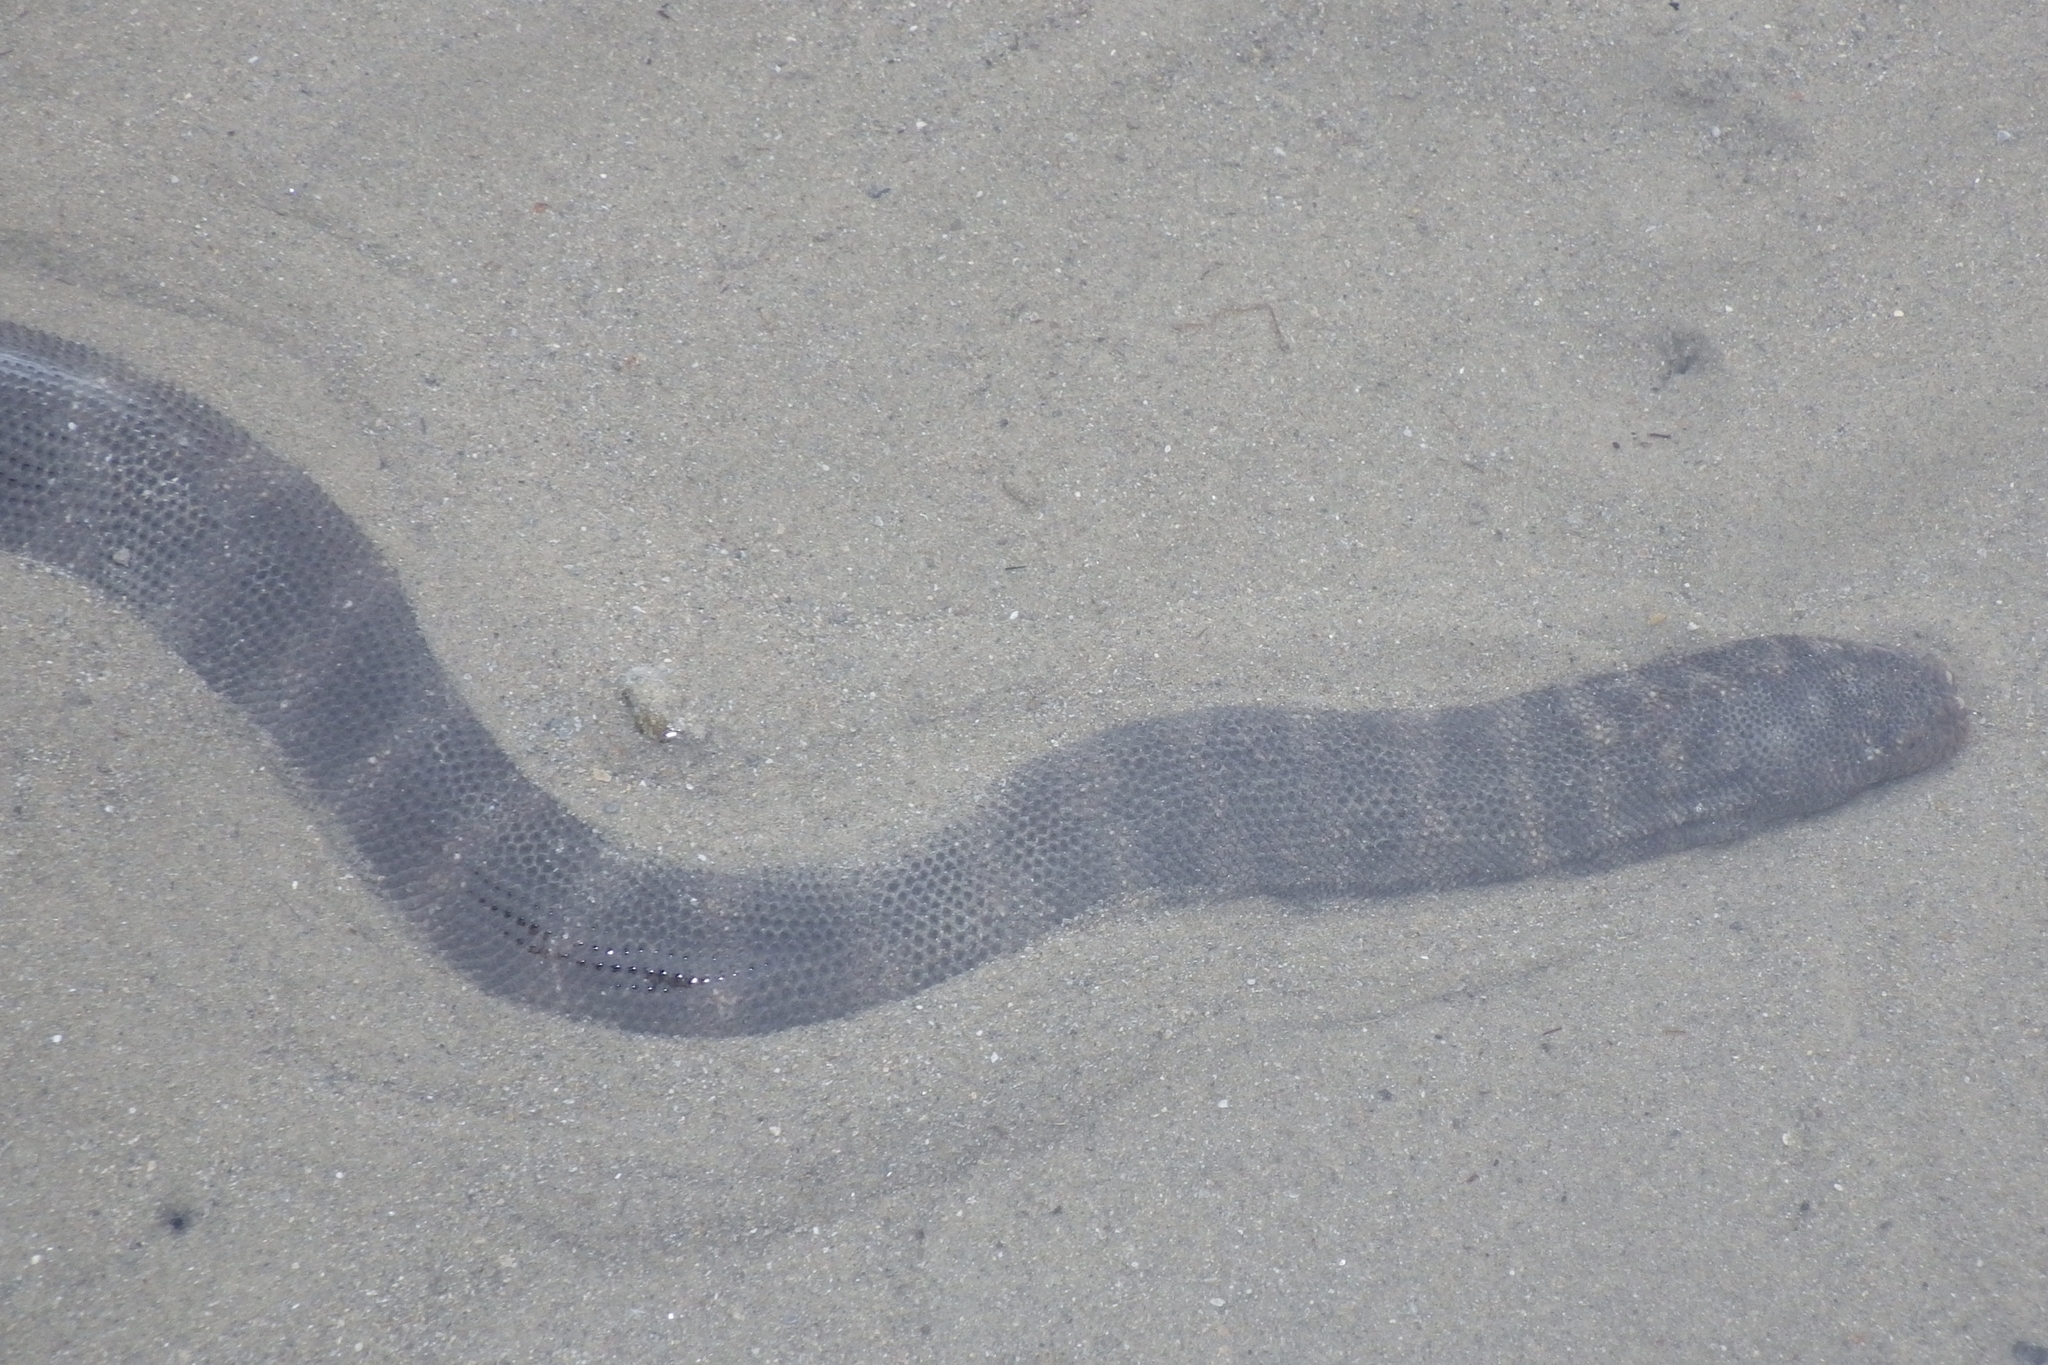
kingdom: Animalia
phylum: Chordata
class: Squamata
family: Acrochordidae
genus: Acrochordus
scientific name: Acrochordus granulatus
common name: Little filesnake
